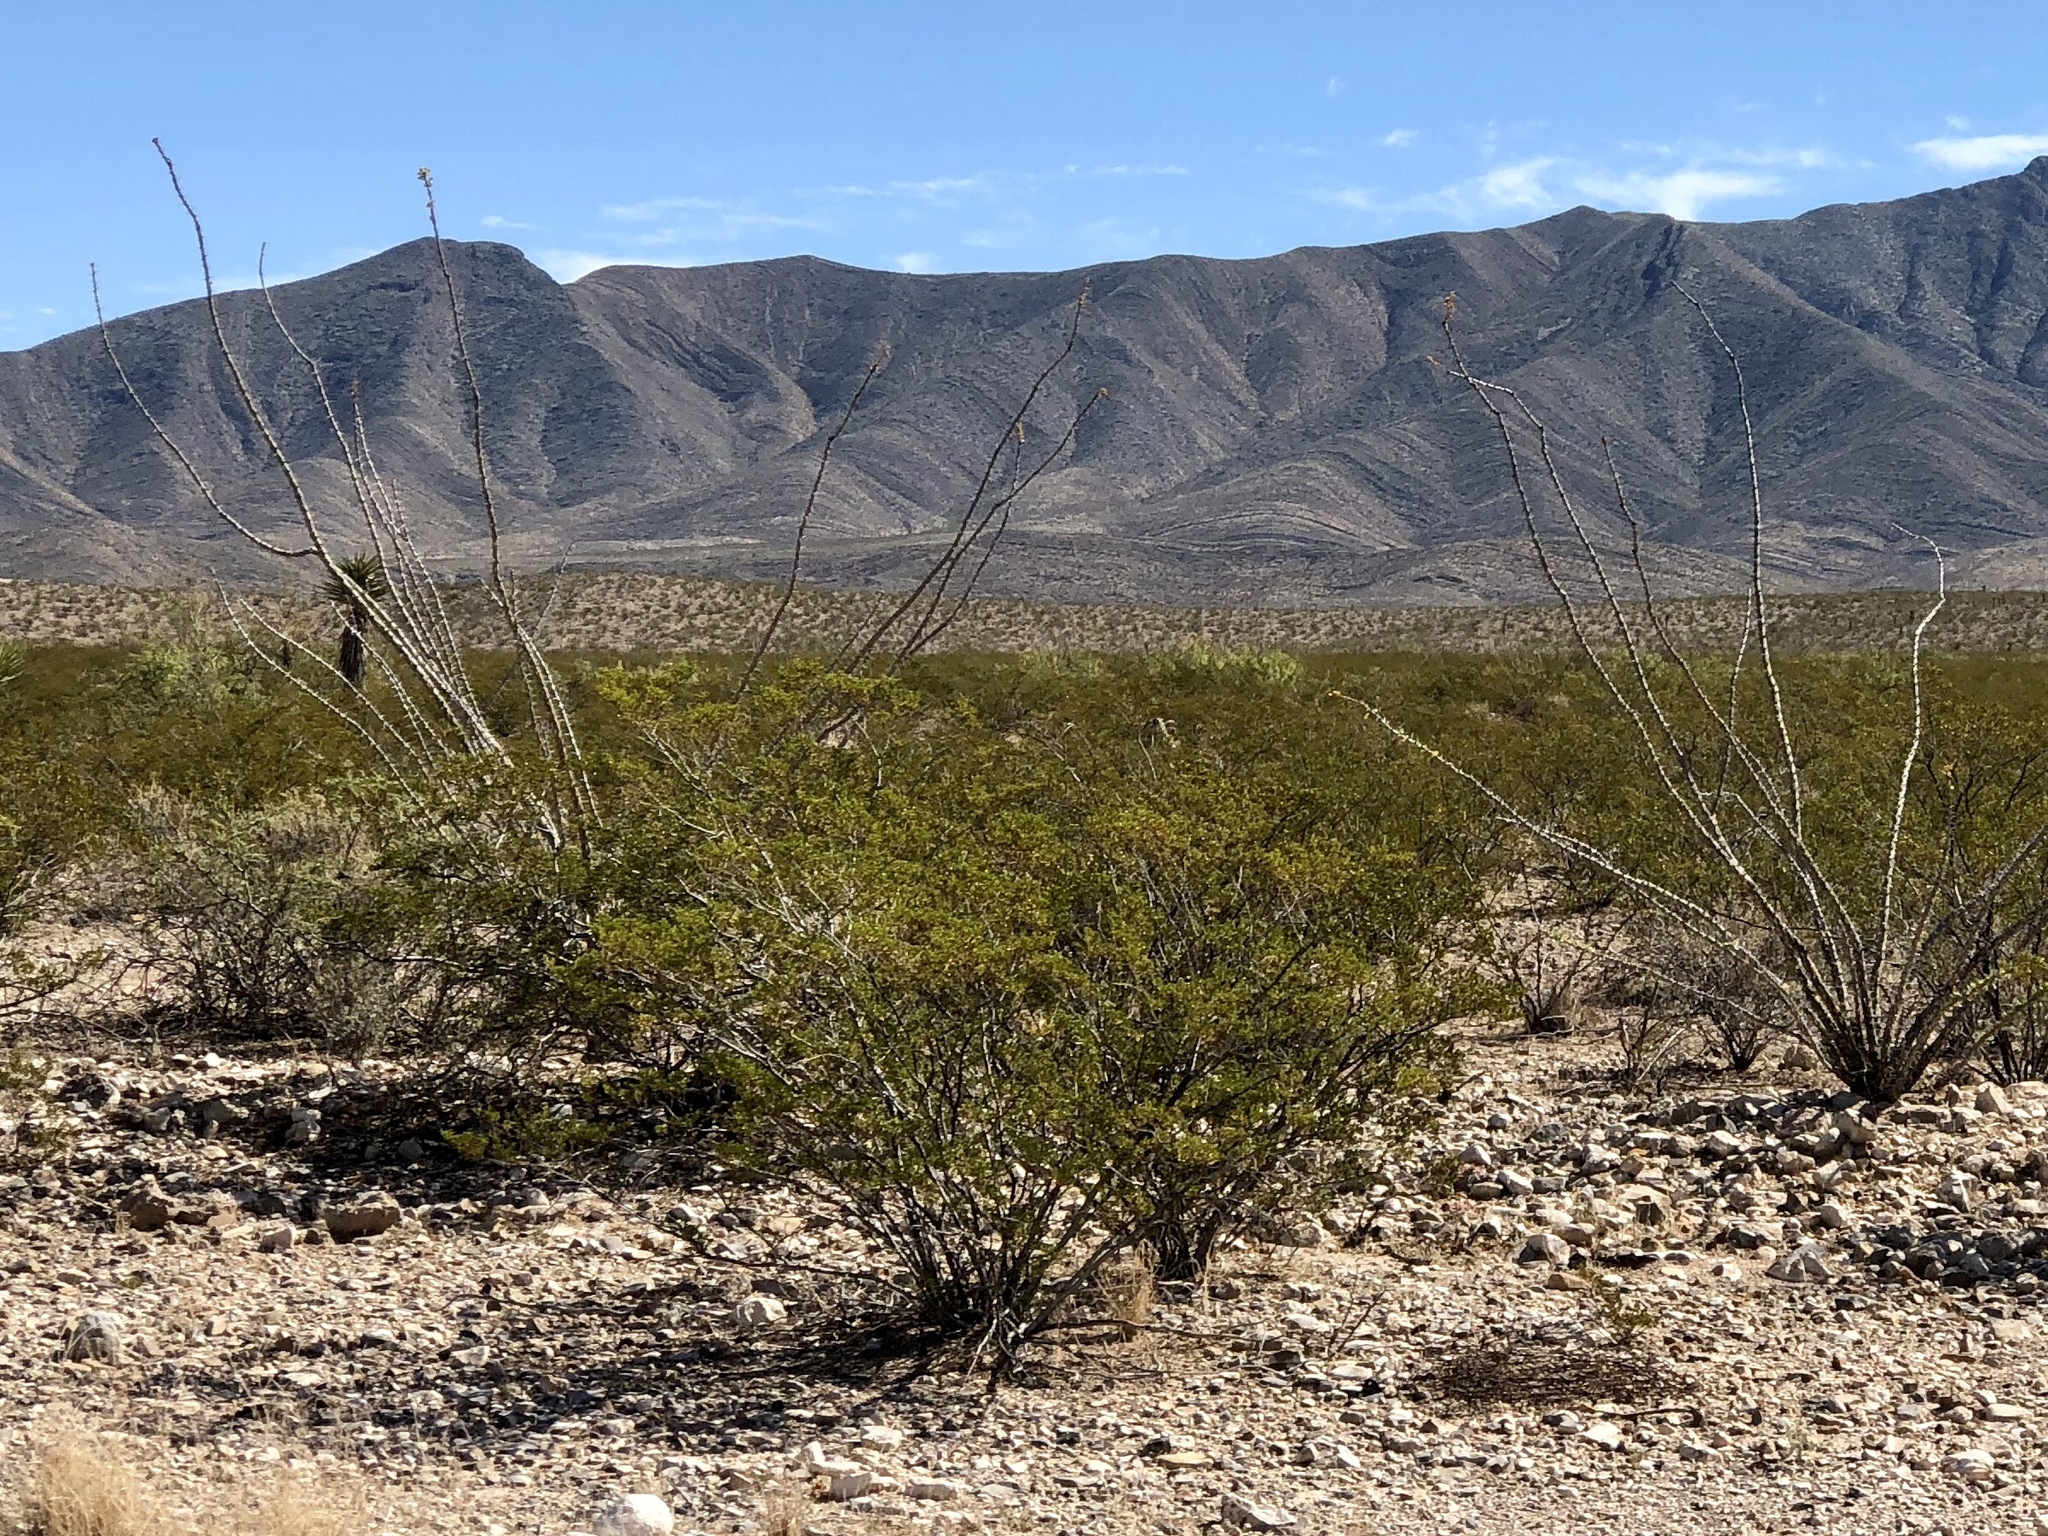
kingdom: Plantae
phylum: Tracheophyta
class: Magnoliopsida
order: Zygophyllales
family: Zygophyllaceae
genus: Larrea
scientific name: Larrea tridentata
